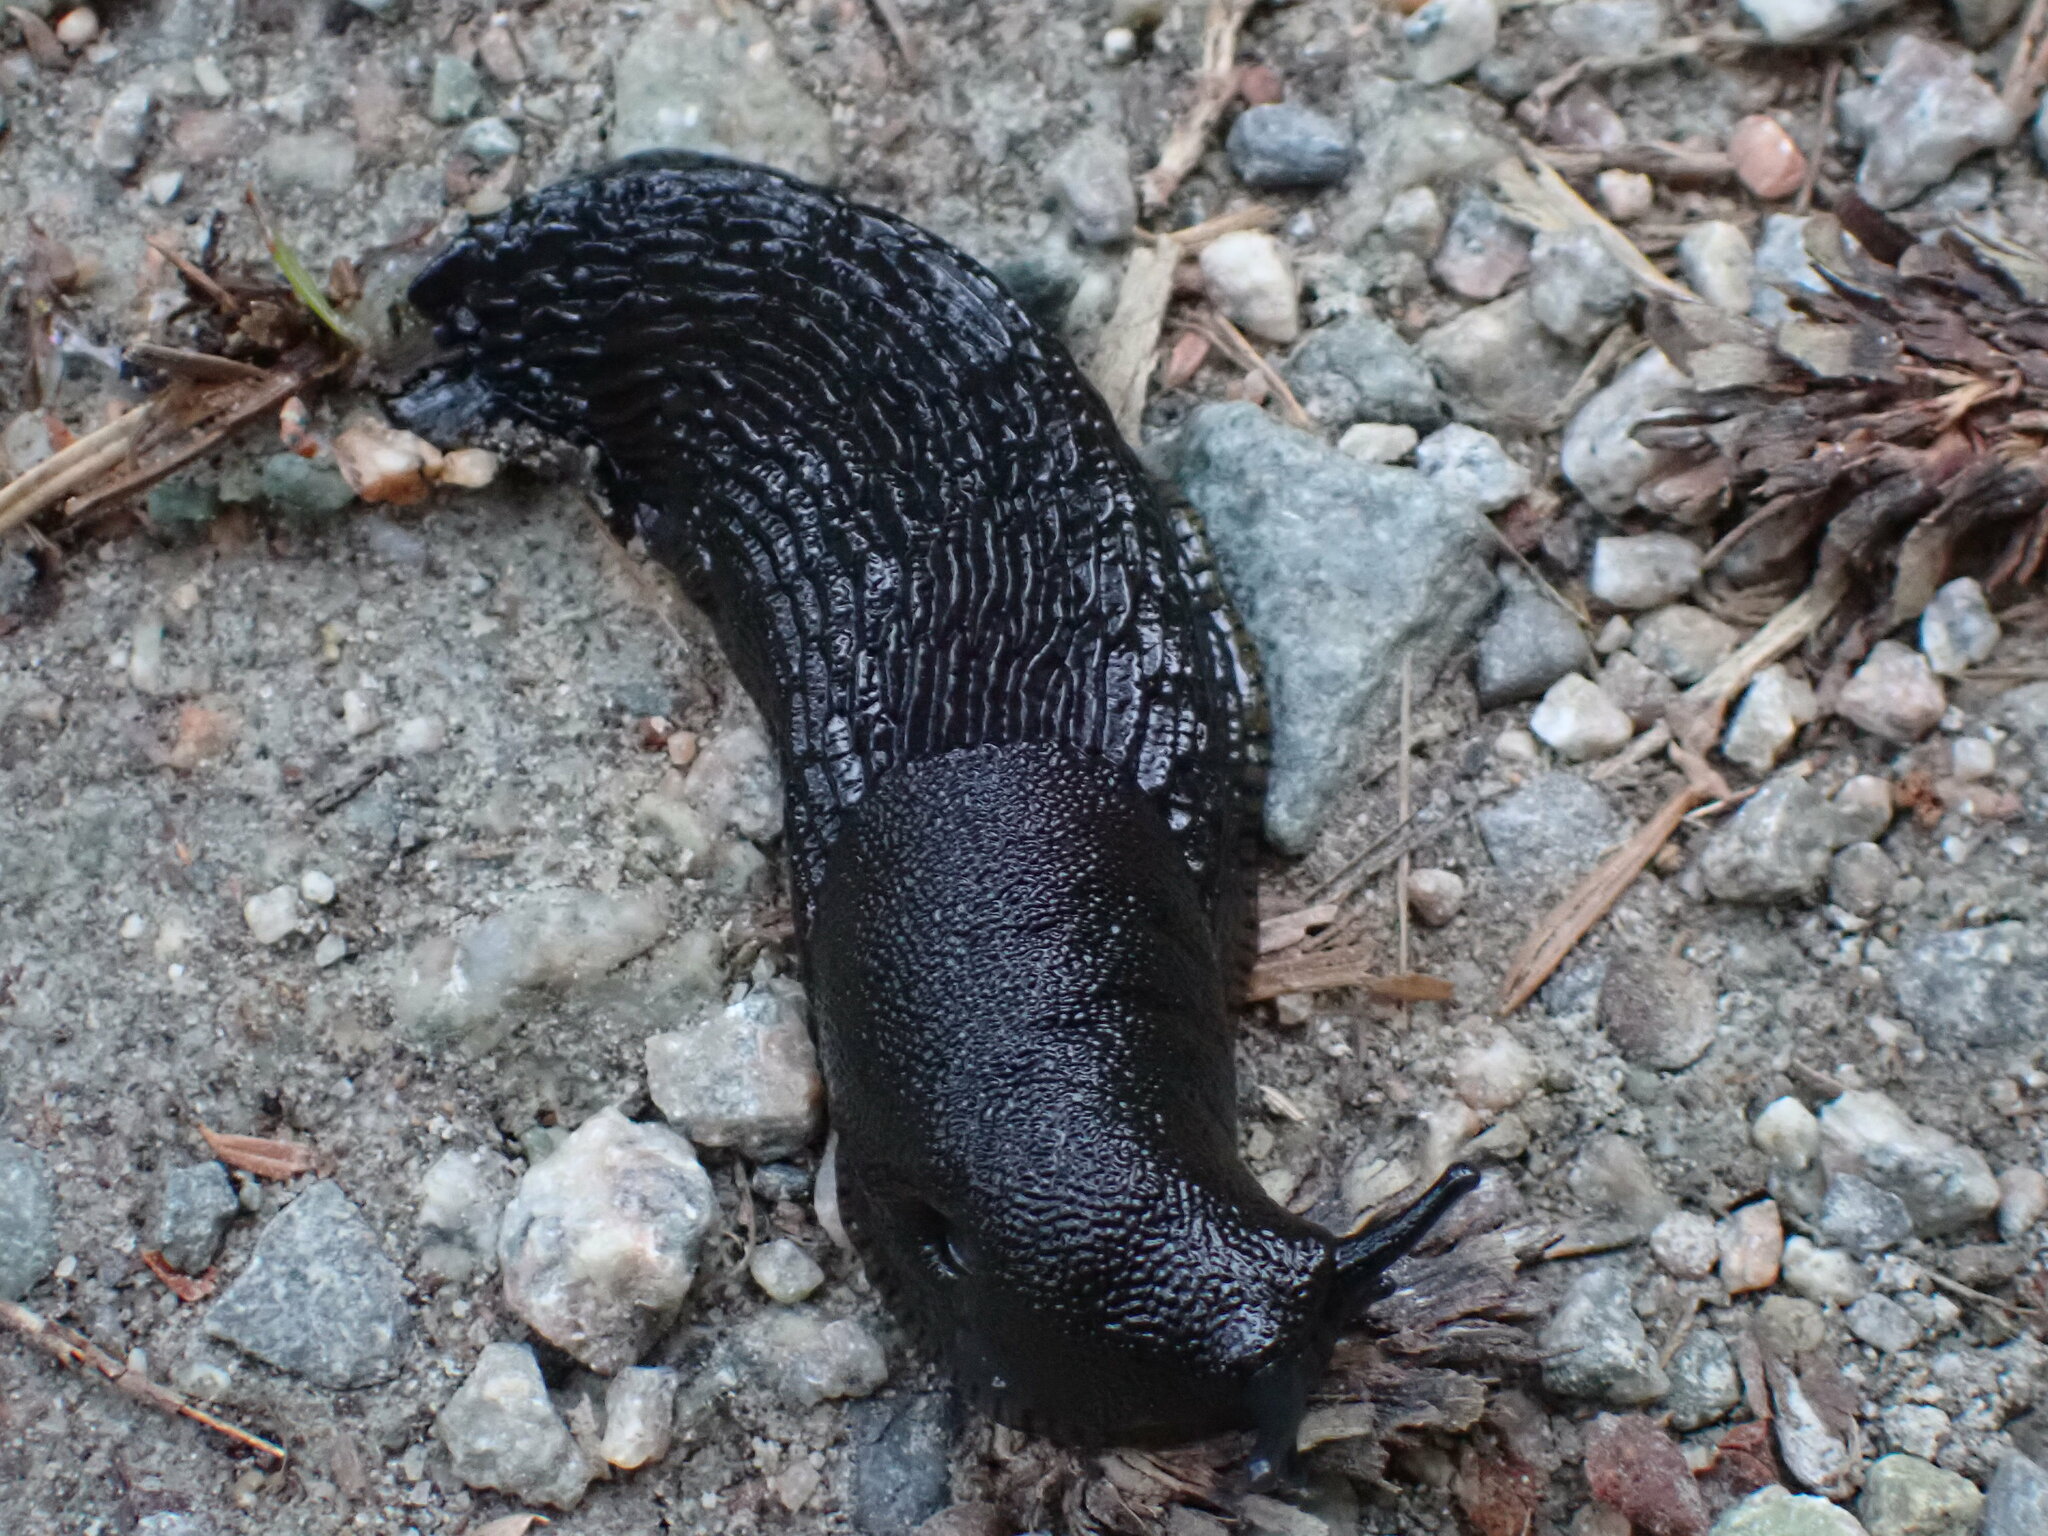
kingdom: Animalia
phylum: Mollusca
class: Gastropoda
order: Stylommatophora
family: Arionidae
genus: Arion
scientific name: Arion
